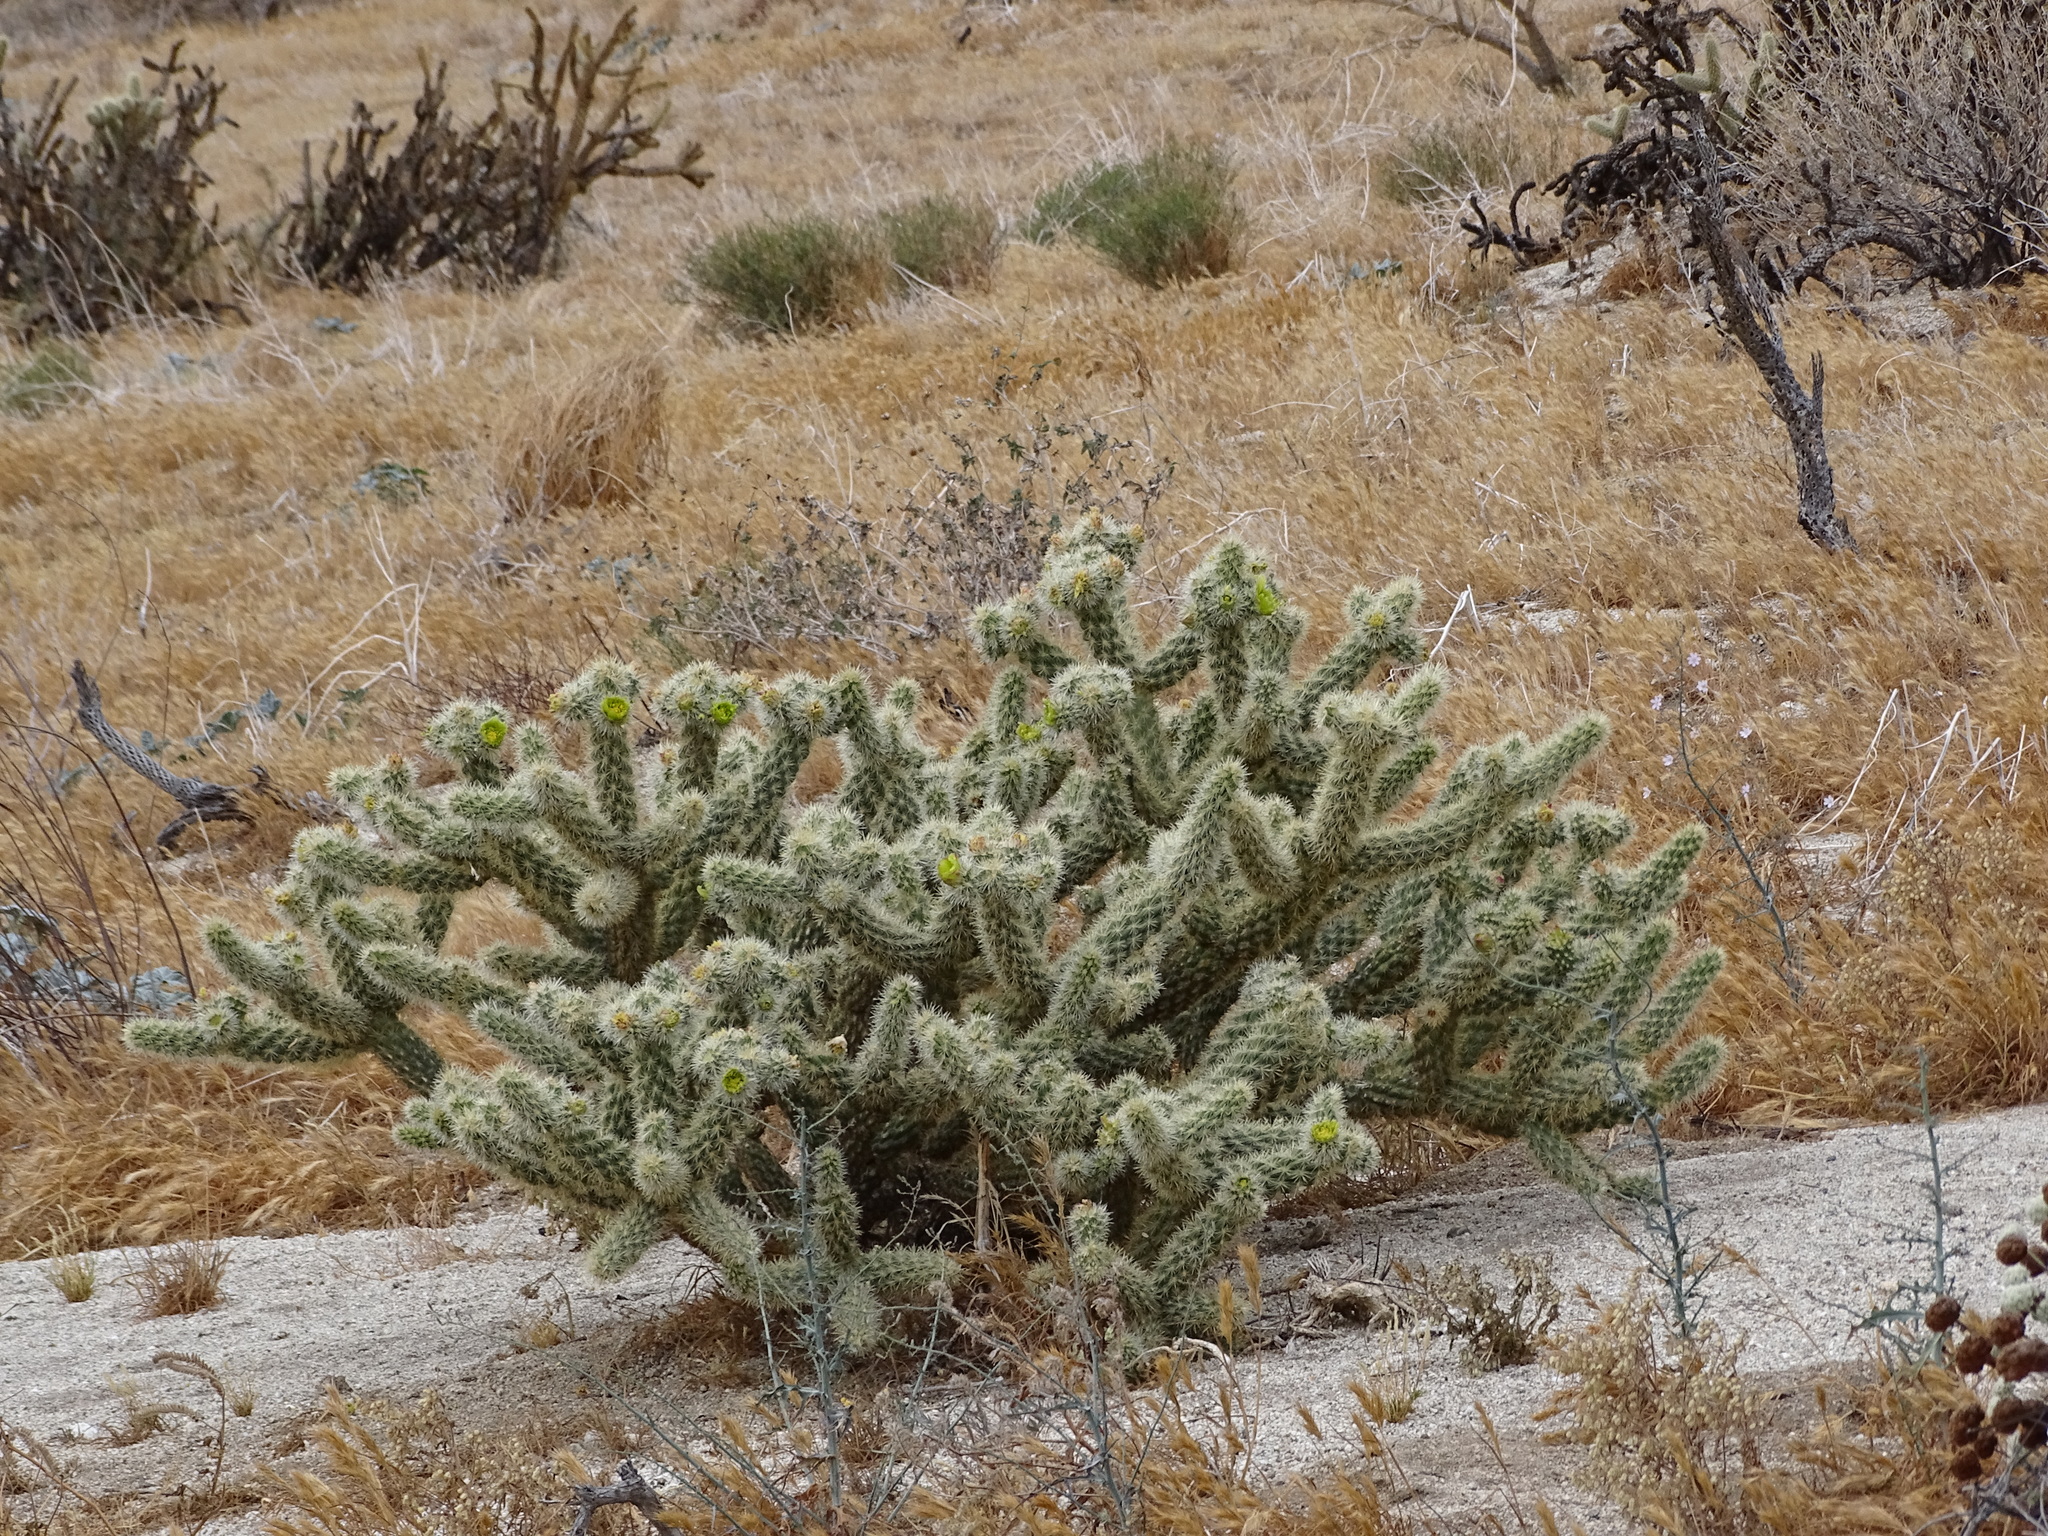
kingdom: Plantae
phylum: Tracheophyta
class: Magnoliopsida
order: Caryophyllales
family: Cactaceae
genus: Cylindropuntia
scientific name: Cylindropuntia ganderi
